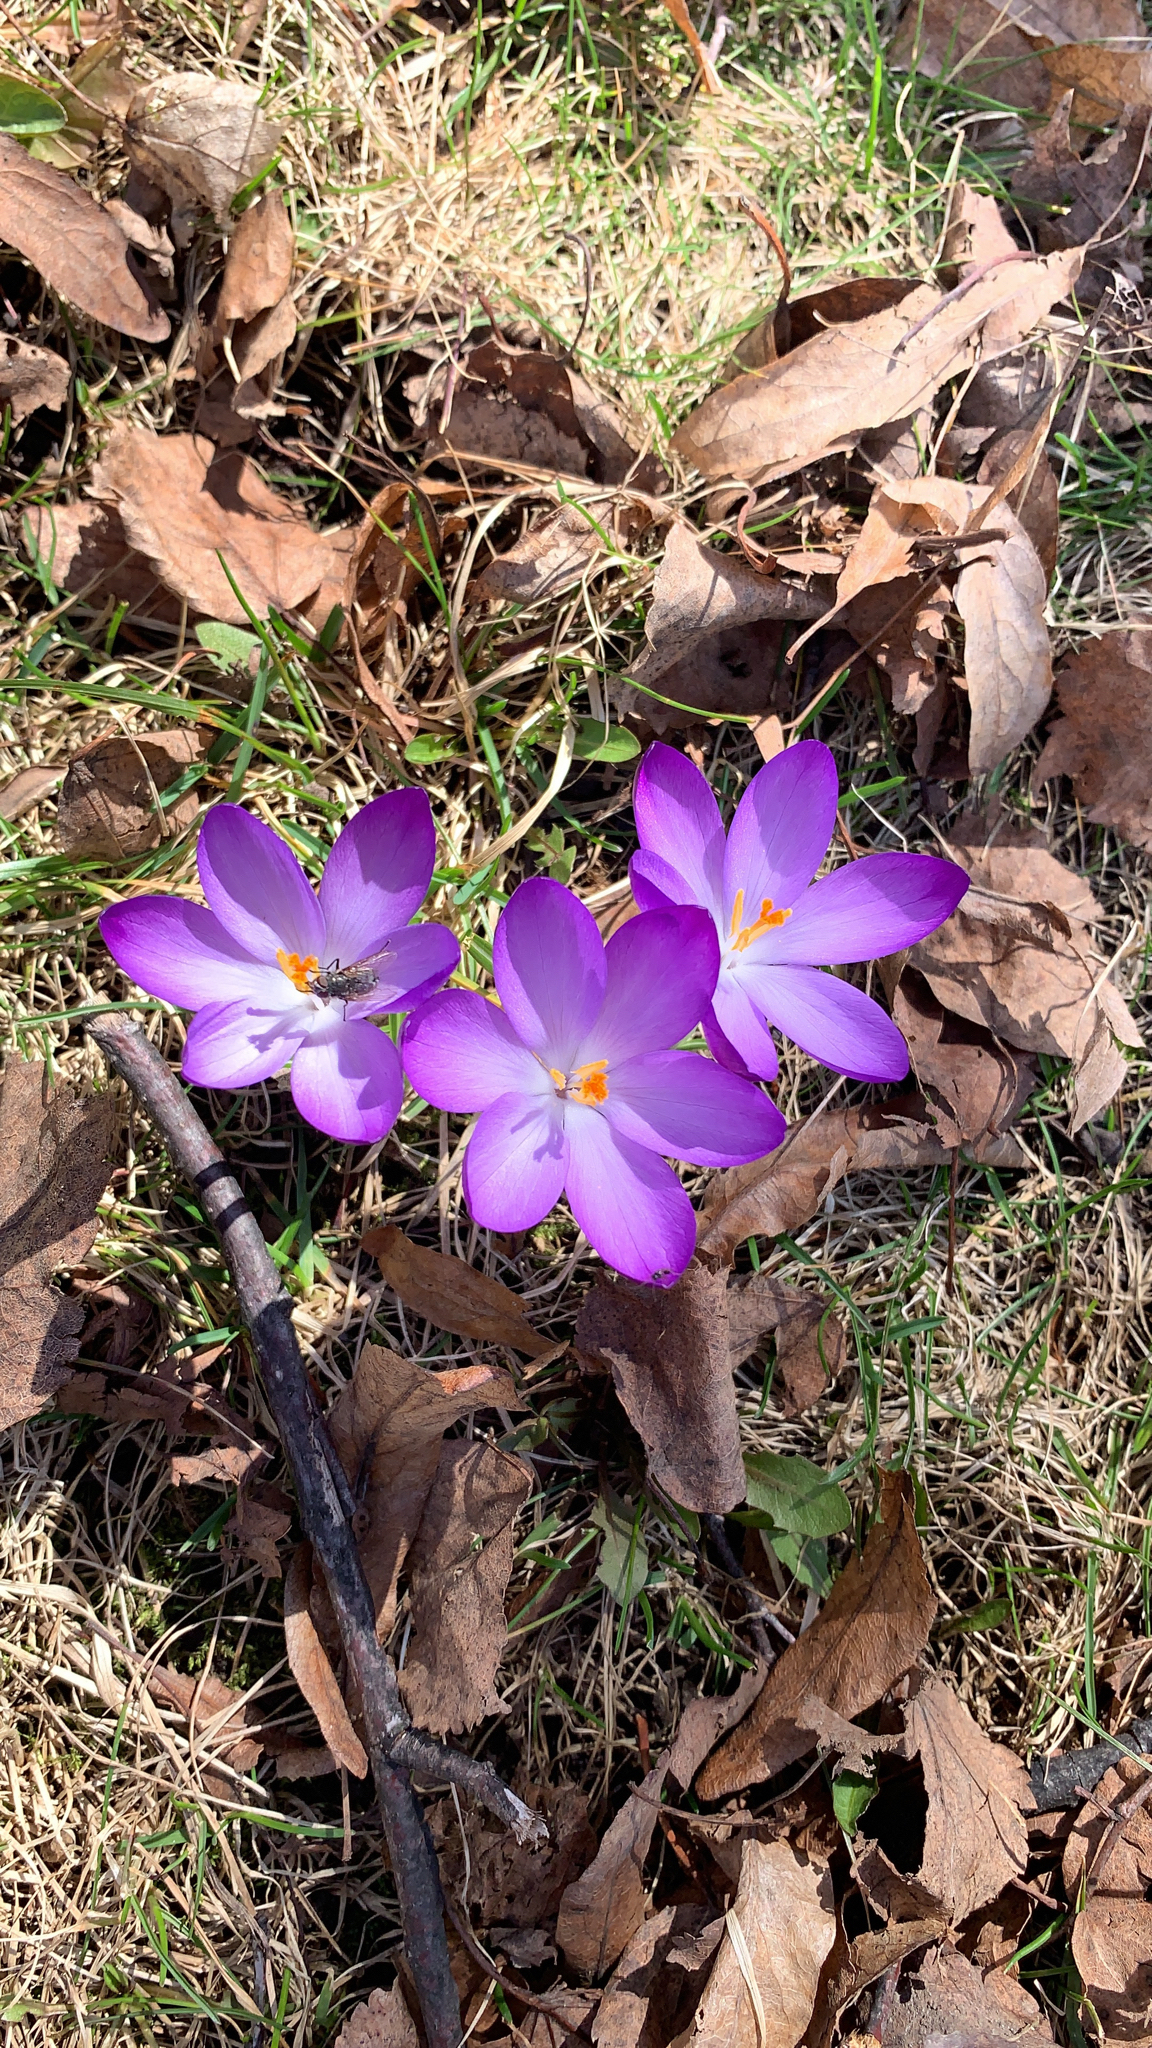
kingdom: Plantae
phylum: Tracheophyta
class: Liliopsida
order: Asparagales
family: Iridaceae
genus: Crocus
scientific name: Crocus tommasinianus
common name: Early crocus
